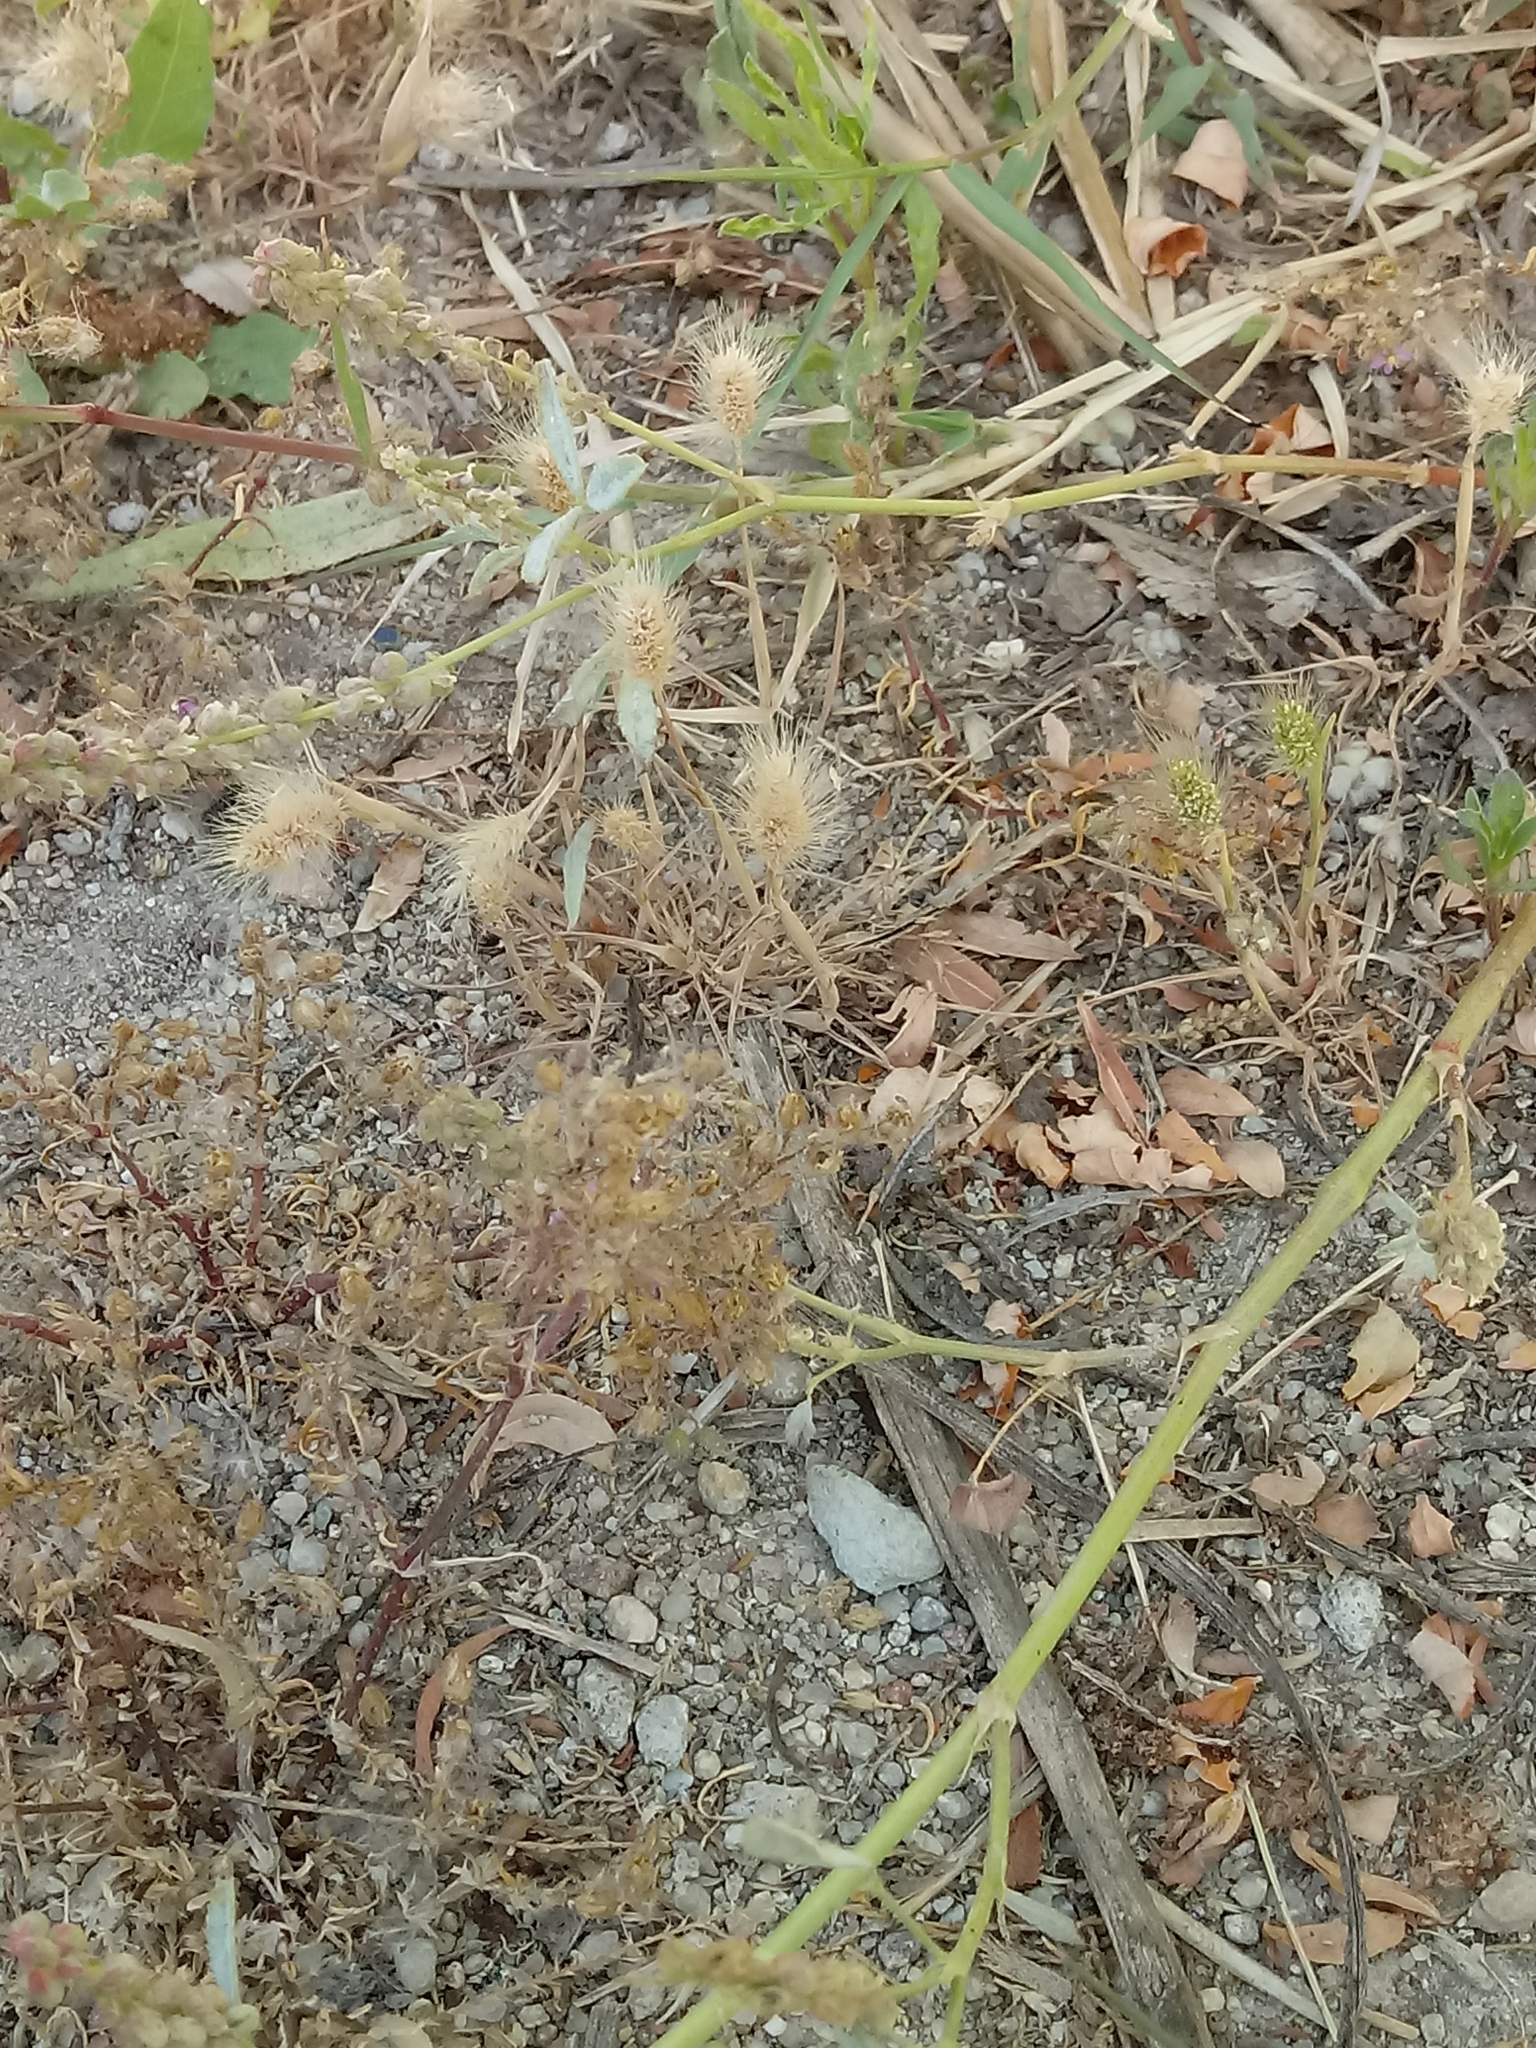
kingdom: Plantae
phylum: Tracheophyta
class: Liliopsida
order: Poales
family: Poaceae
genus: Polypogon
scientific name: Polypogon monspeliensis
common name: Annual rabbitsfoot grass
